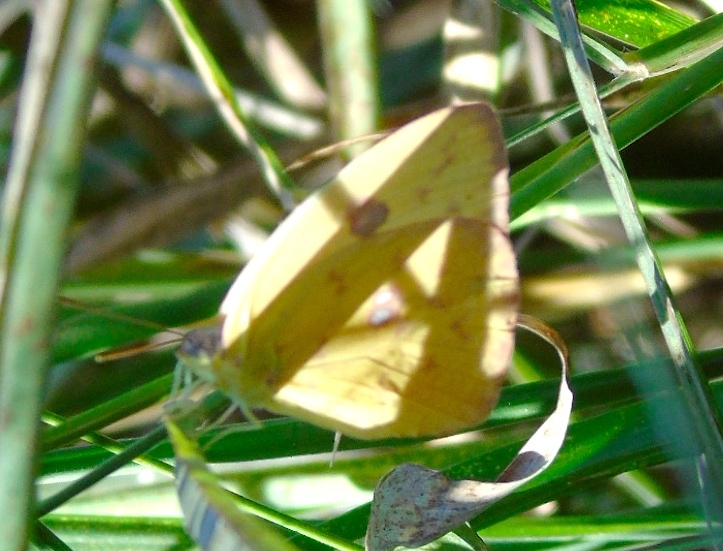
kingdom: Animalia
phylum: Arthropoda
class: Insecta
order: Lepidoptera
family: Pieridae
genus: Phoebis
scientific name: Phoebis sennae
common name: Cloudless sulphur
